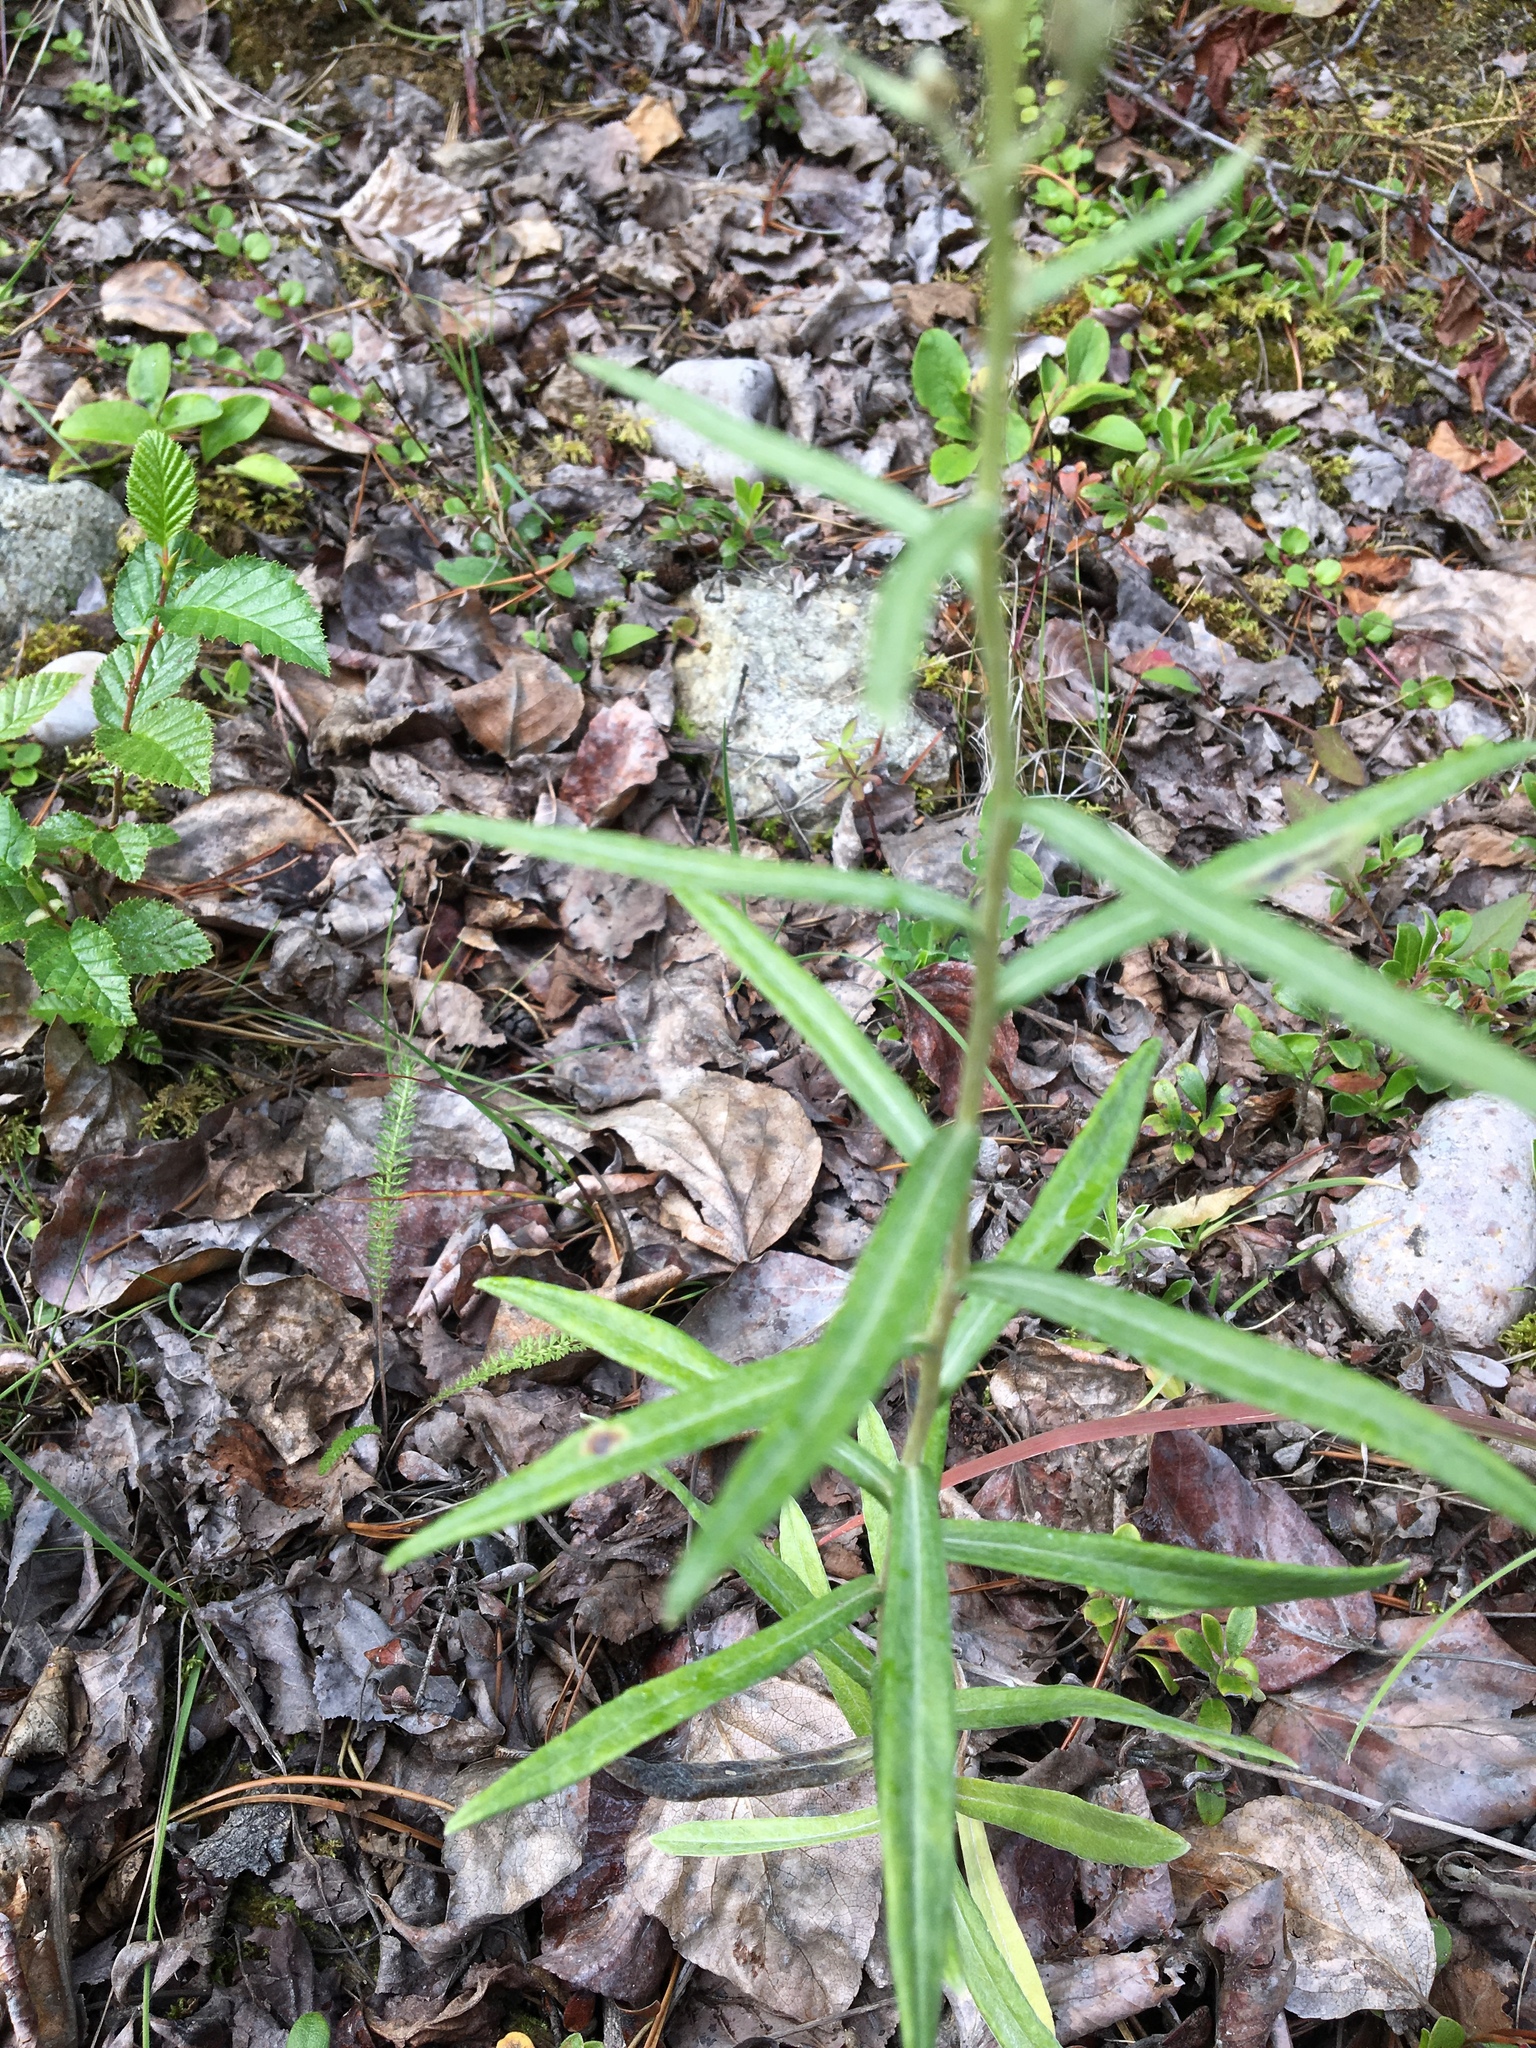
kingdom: Plantae
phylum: Tracheophyta
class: Magnoliopsida
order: Asterales
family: Asteraceae
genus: Anaphalis
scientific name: Anaphalis margaritacea
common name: Pearly everlasting
